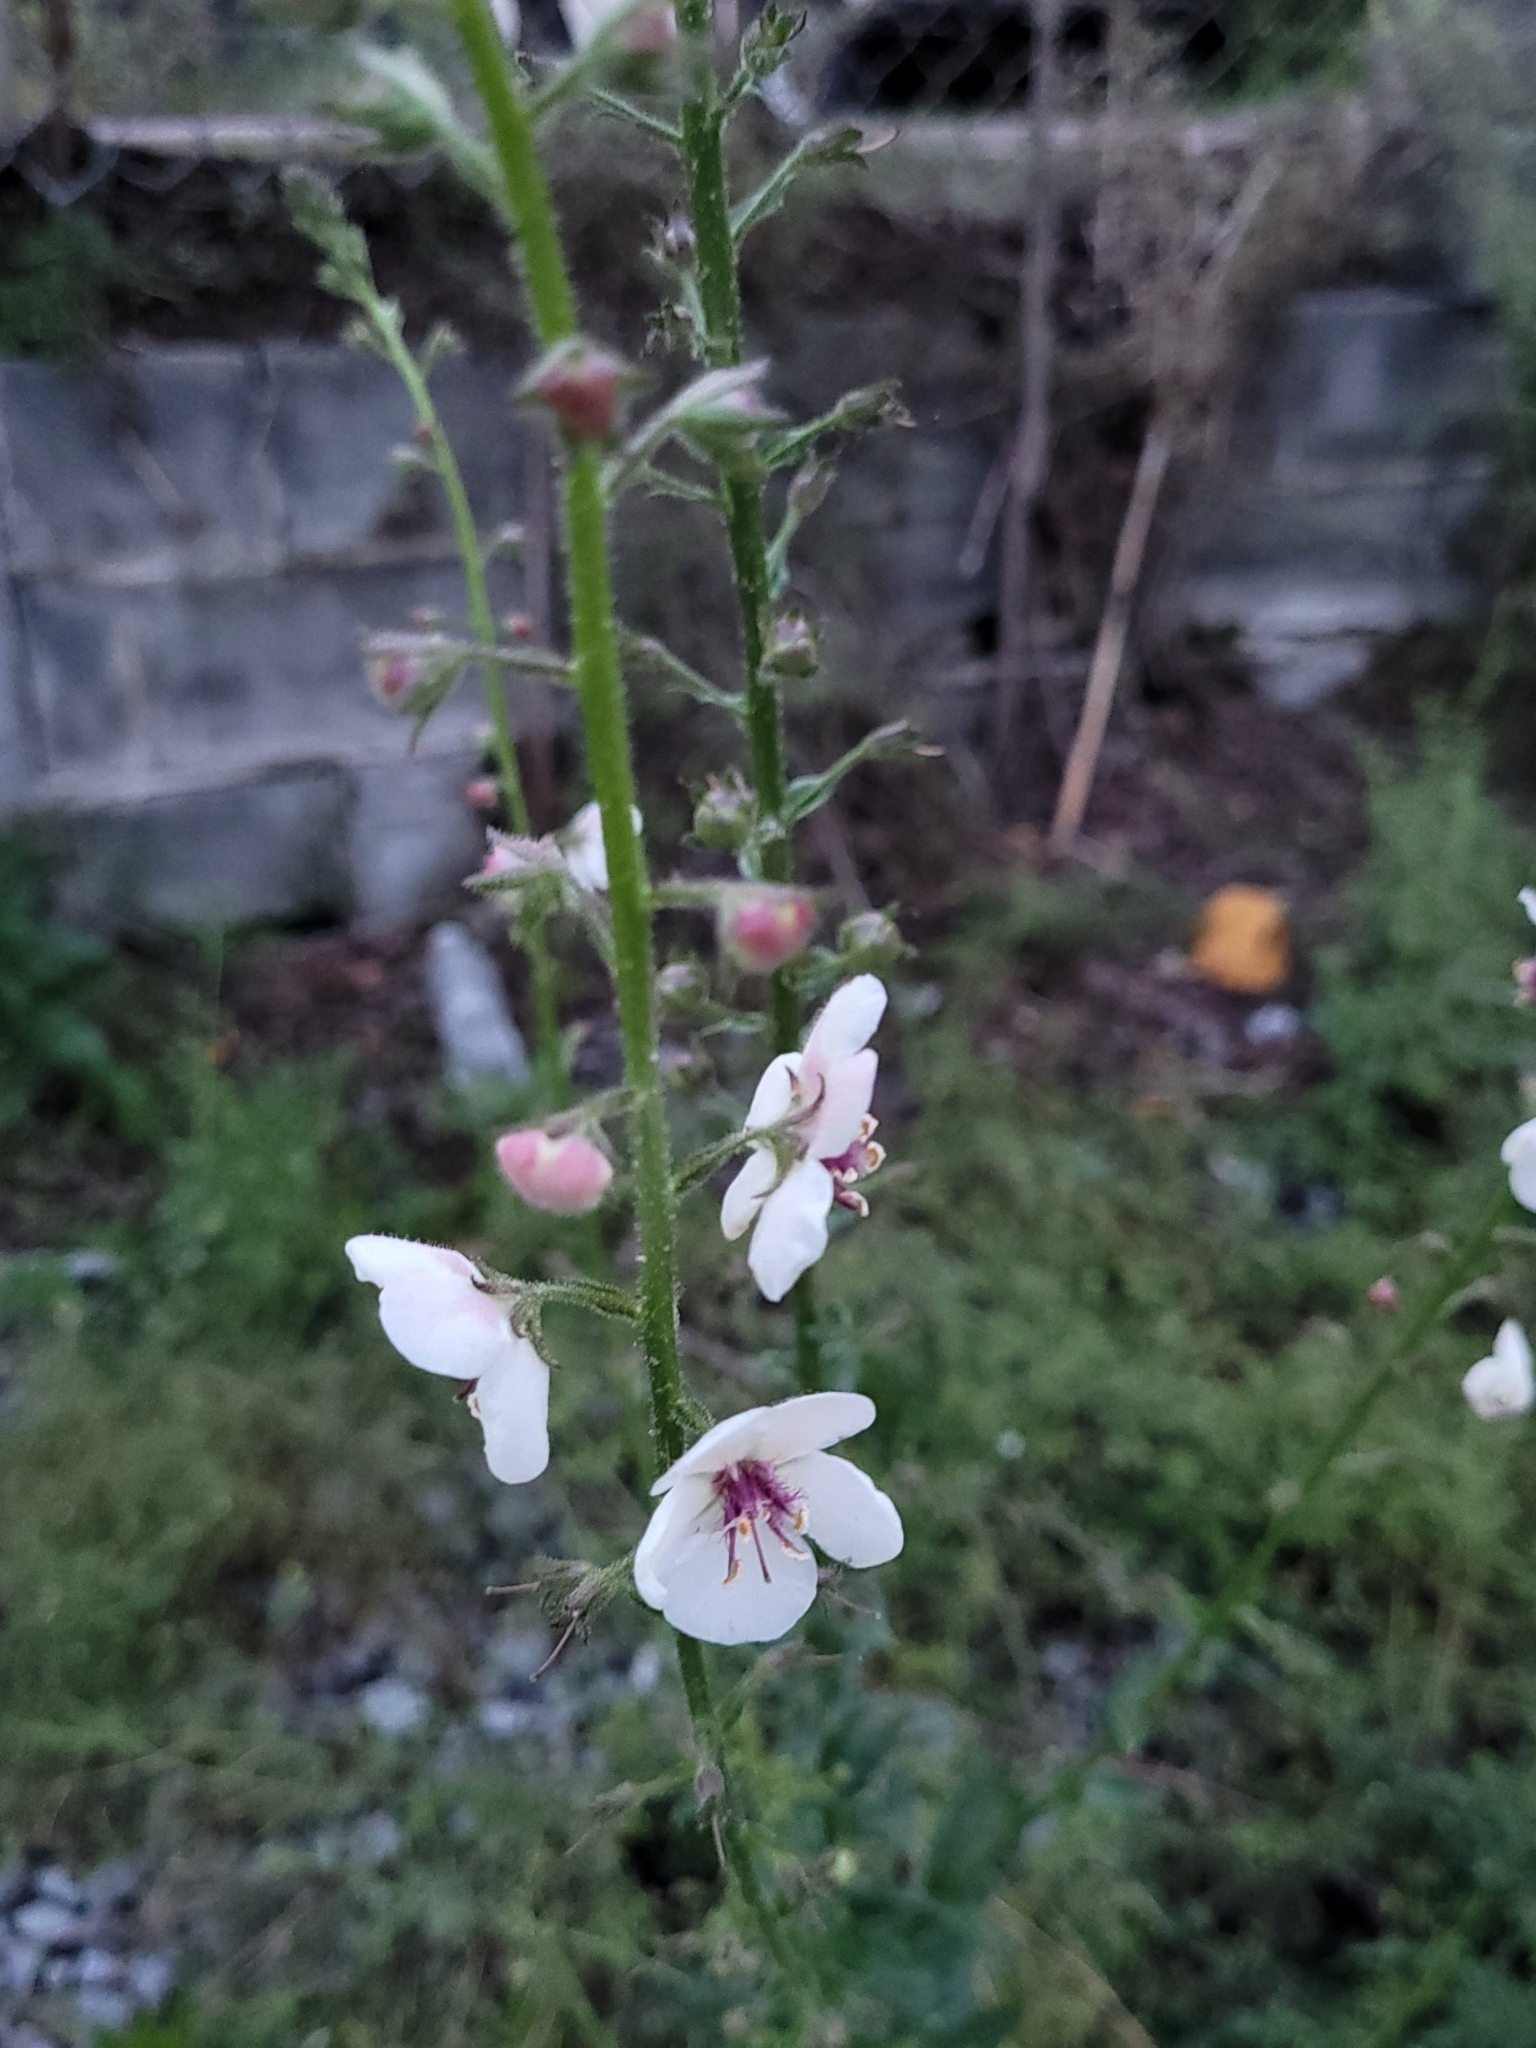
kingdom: Plantae
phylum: Tracheophyta
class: Magnoliopsida
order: Lamiales
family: Scrophulariaceae
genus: Verbascum
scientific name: Verbascum blattaria
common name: Moth mullein
